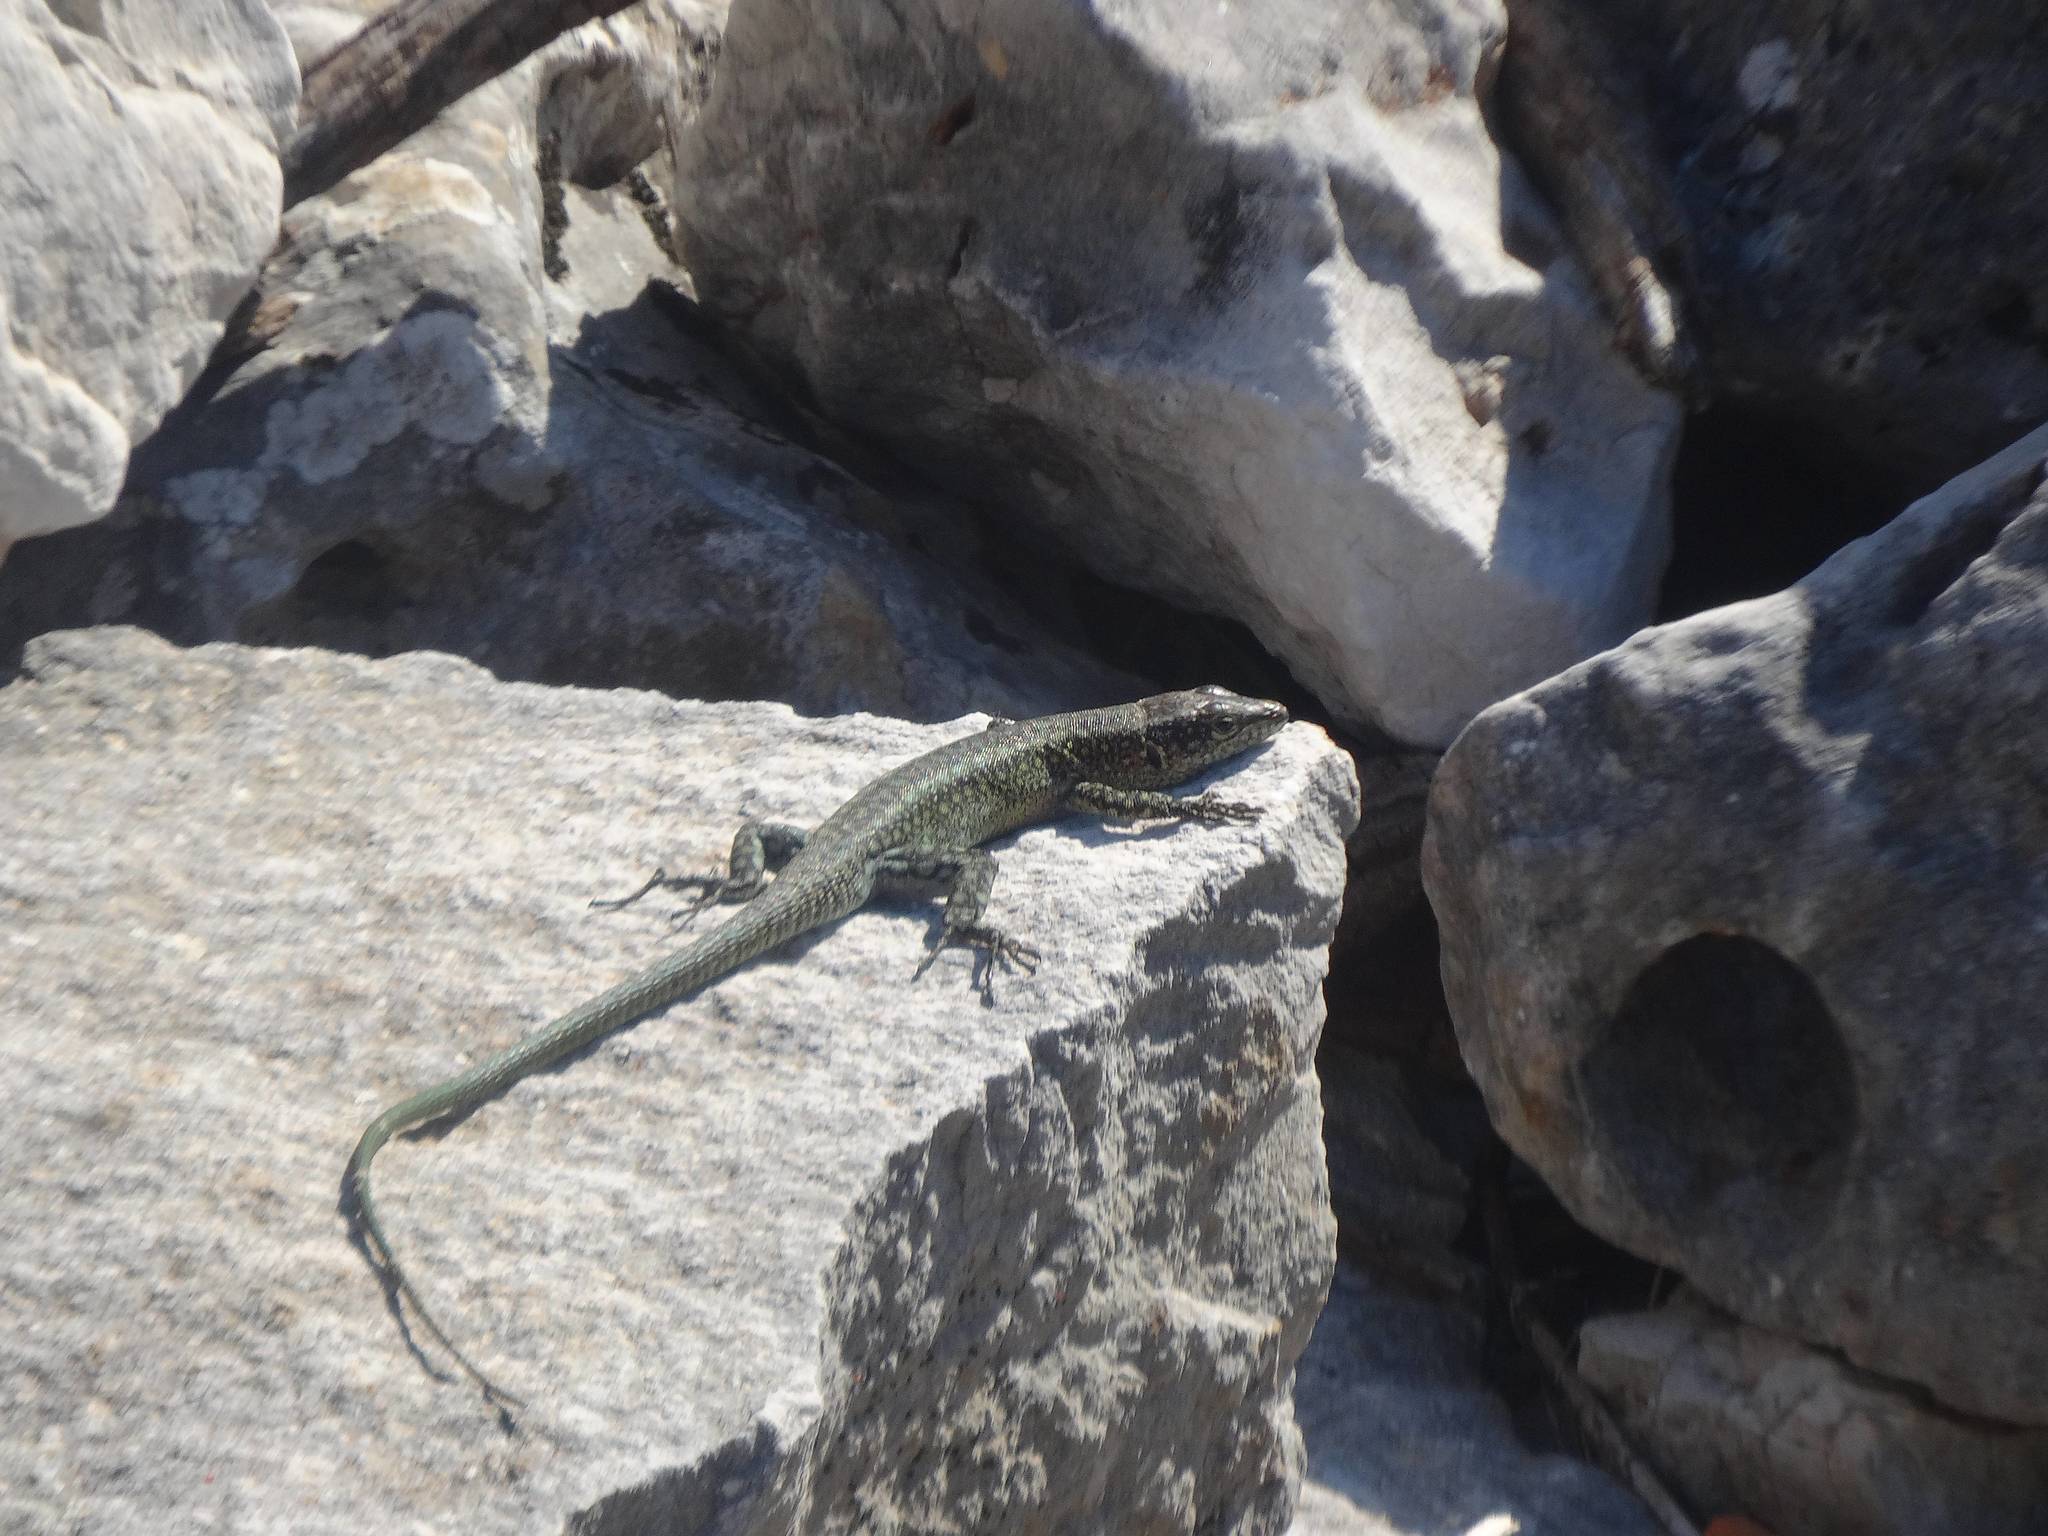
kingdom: Animalia
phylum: Chordata
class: Squamata
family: Lacertidae
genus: Anatololacerta
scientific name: Anatololacerta finikensis
